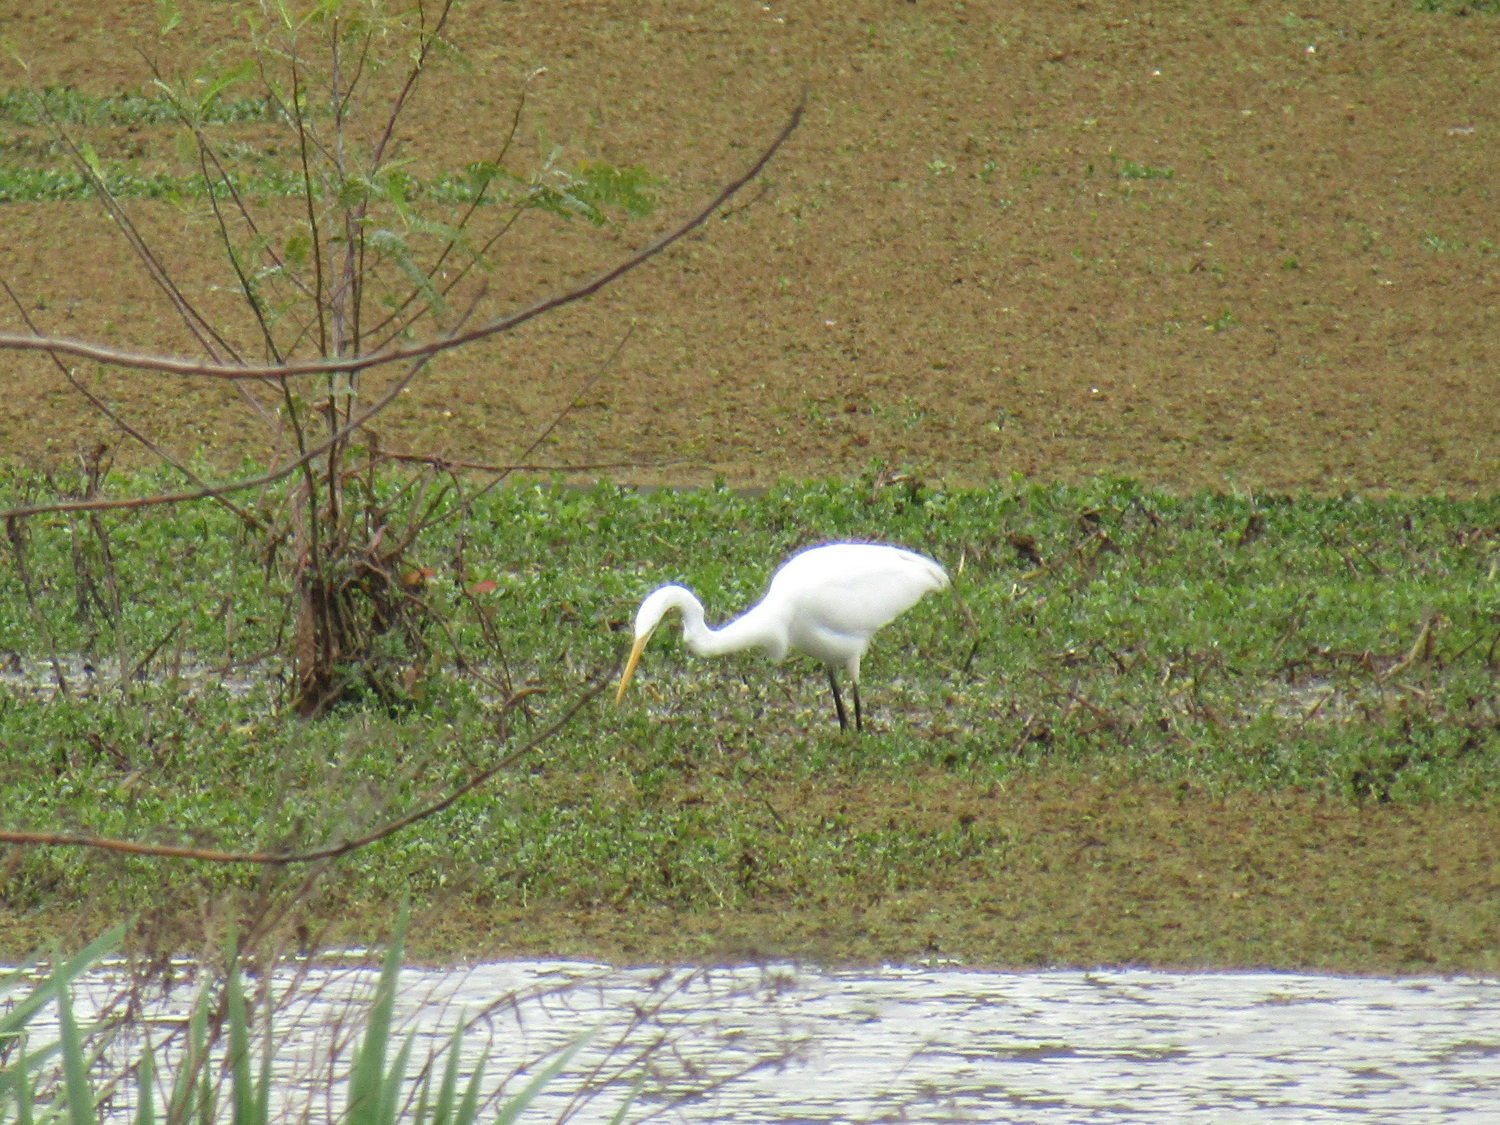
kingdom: Animalia
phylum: Chordata
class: Aves
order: Pelecaniformes
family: Ardeidae
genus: Ardea
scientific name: Ardea alba
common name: Great egret
